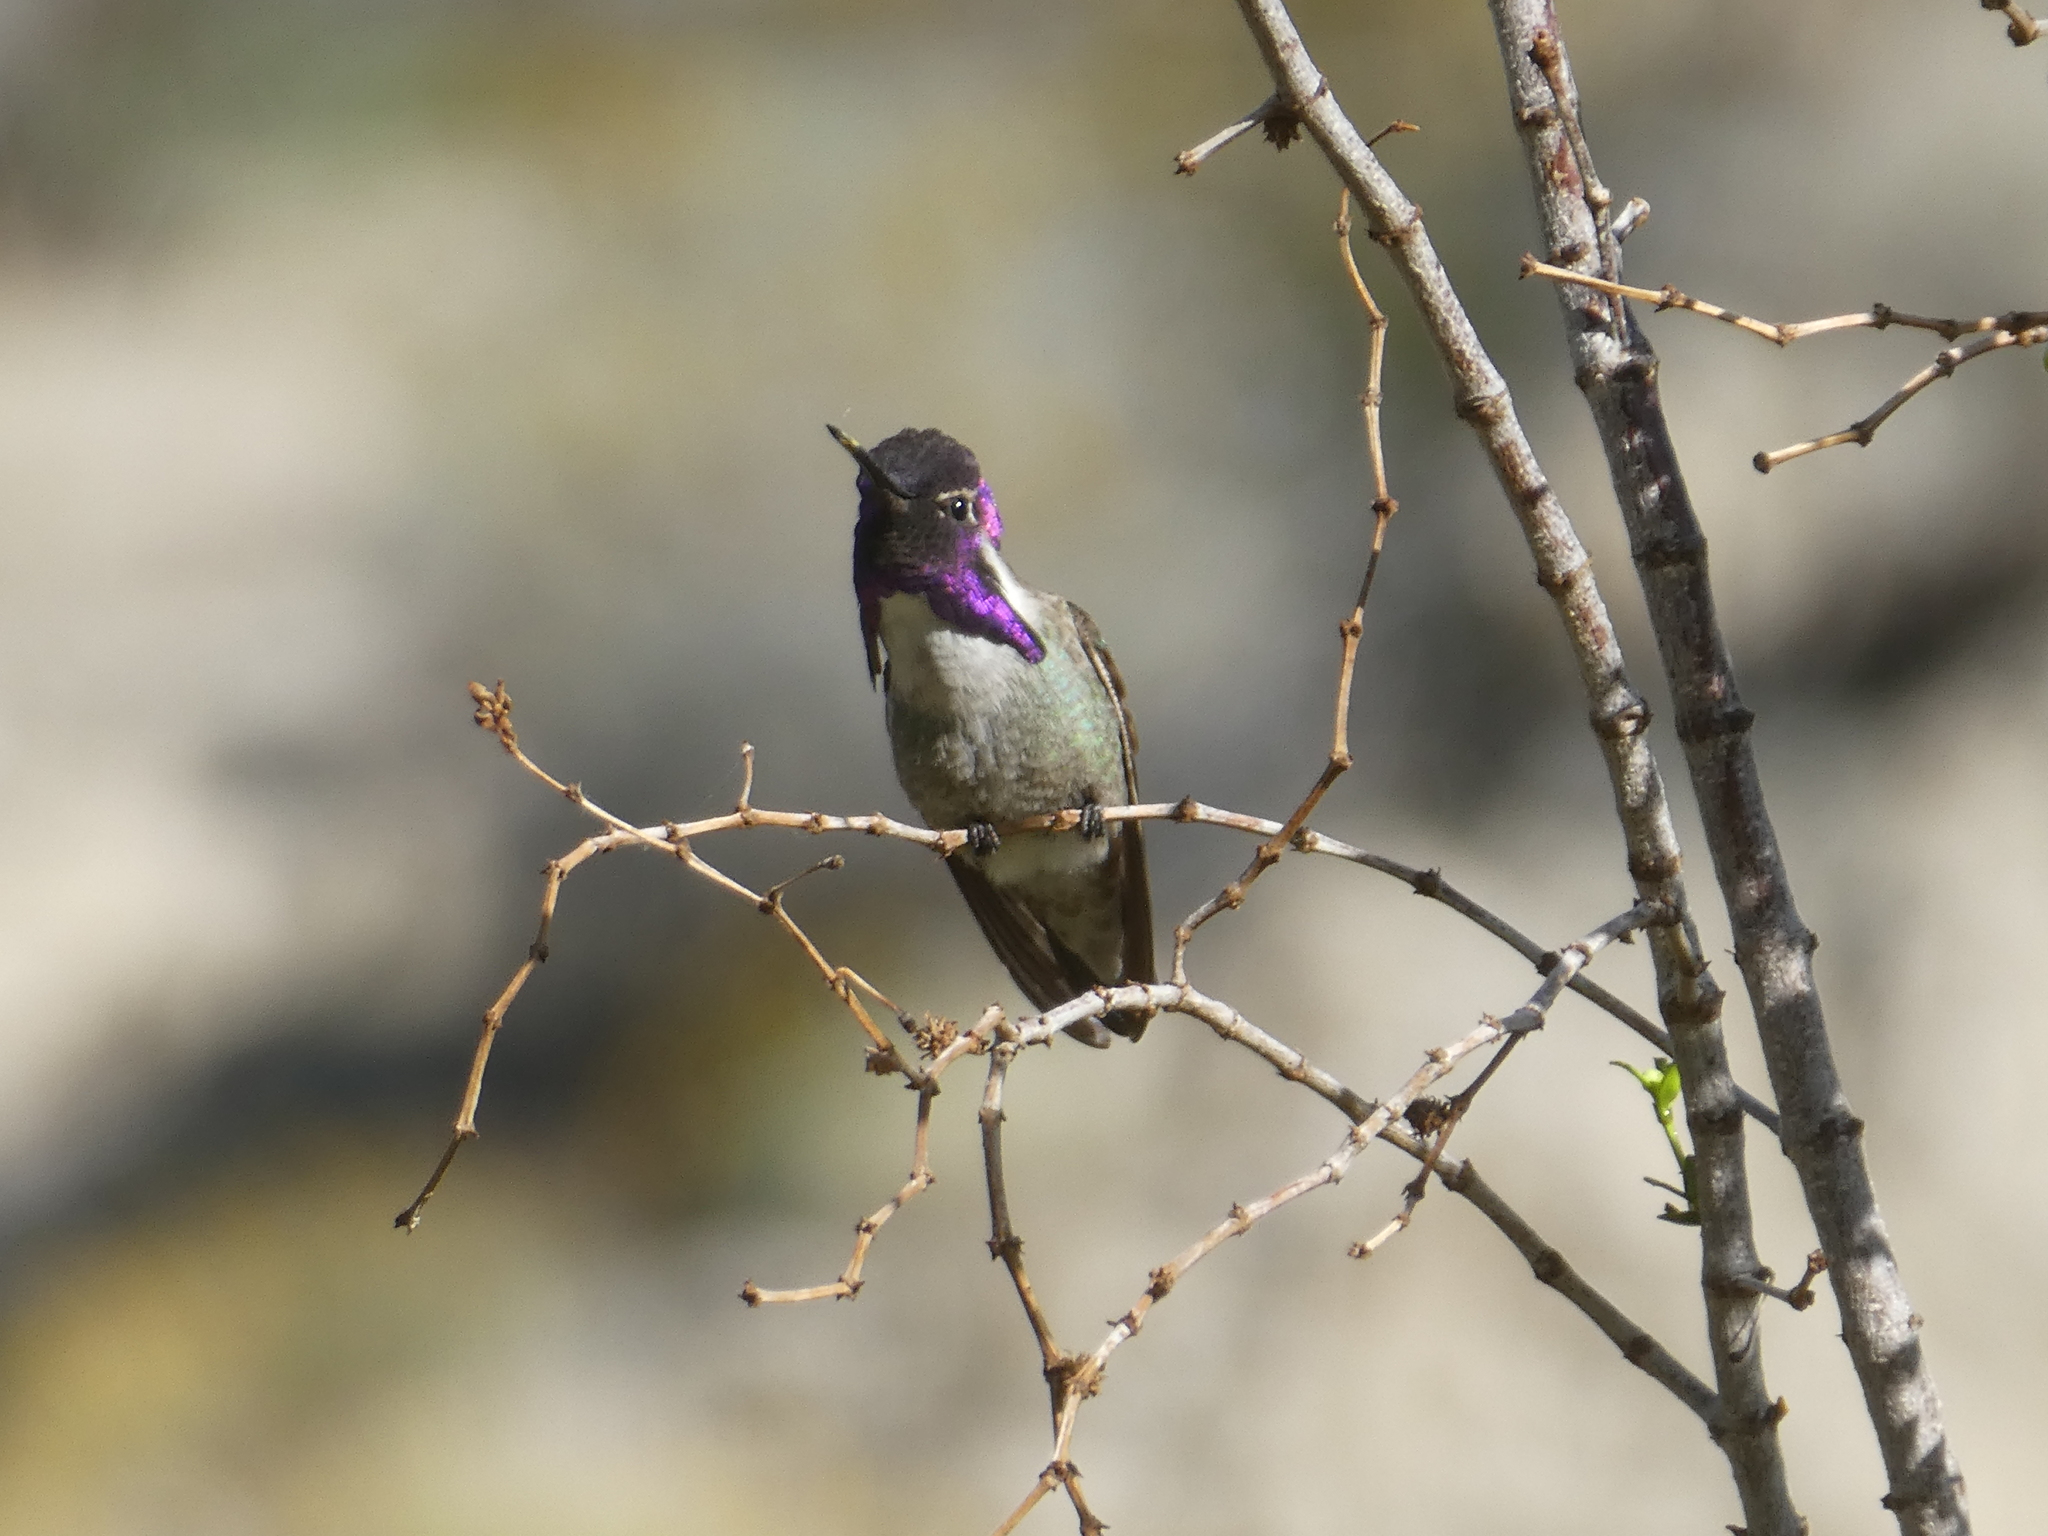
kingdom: Animalia
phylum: Chordata
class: Aves
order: Apodiformes
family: Trochilidae
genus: Calypte
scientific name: Calypte costae
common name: Costa's hummingbird
